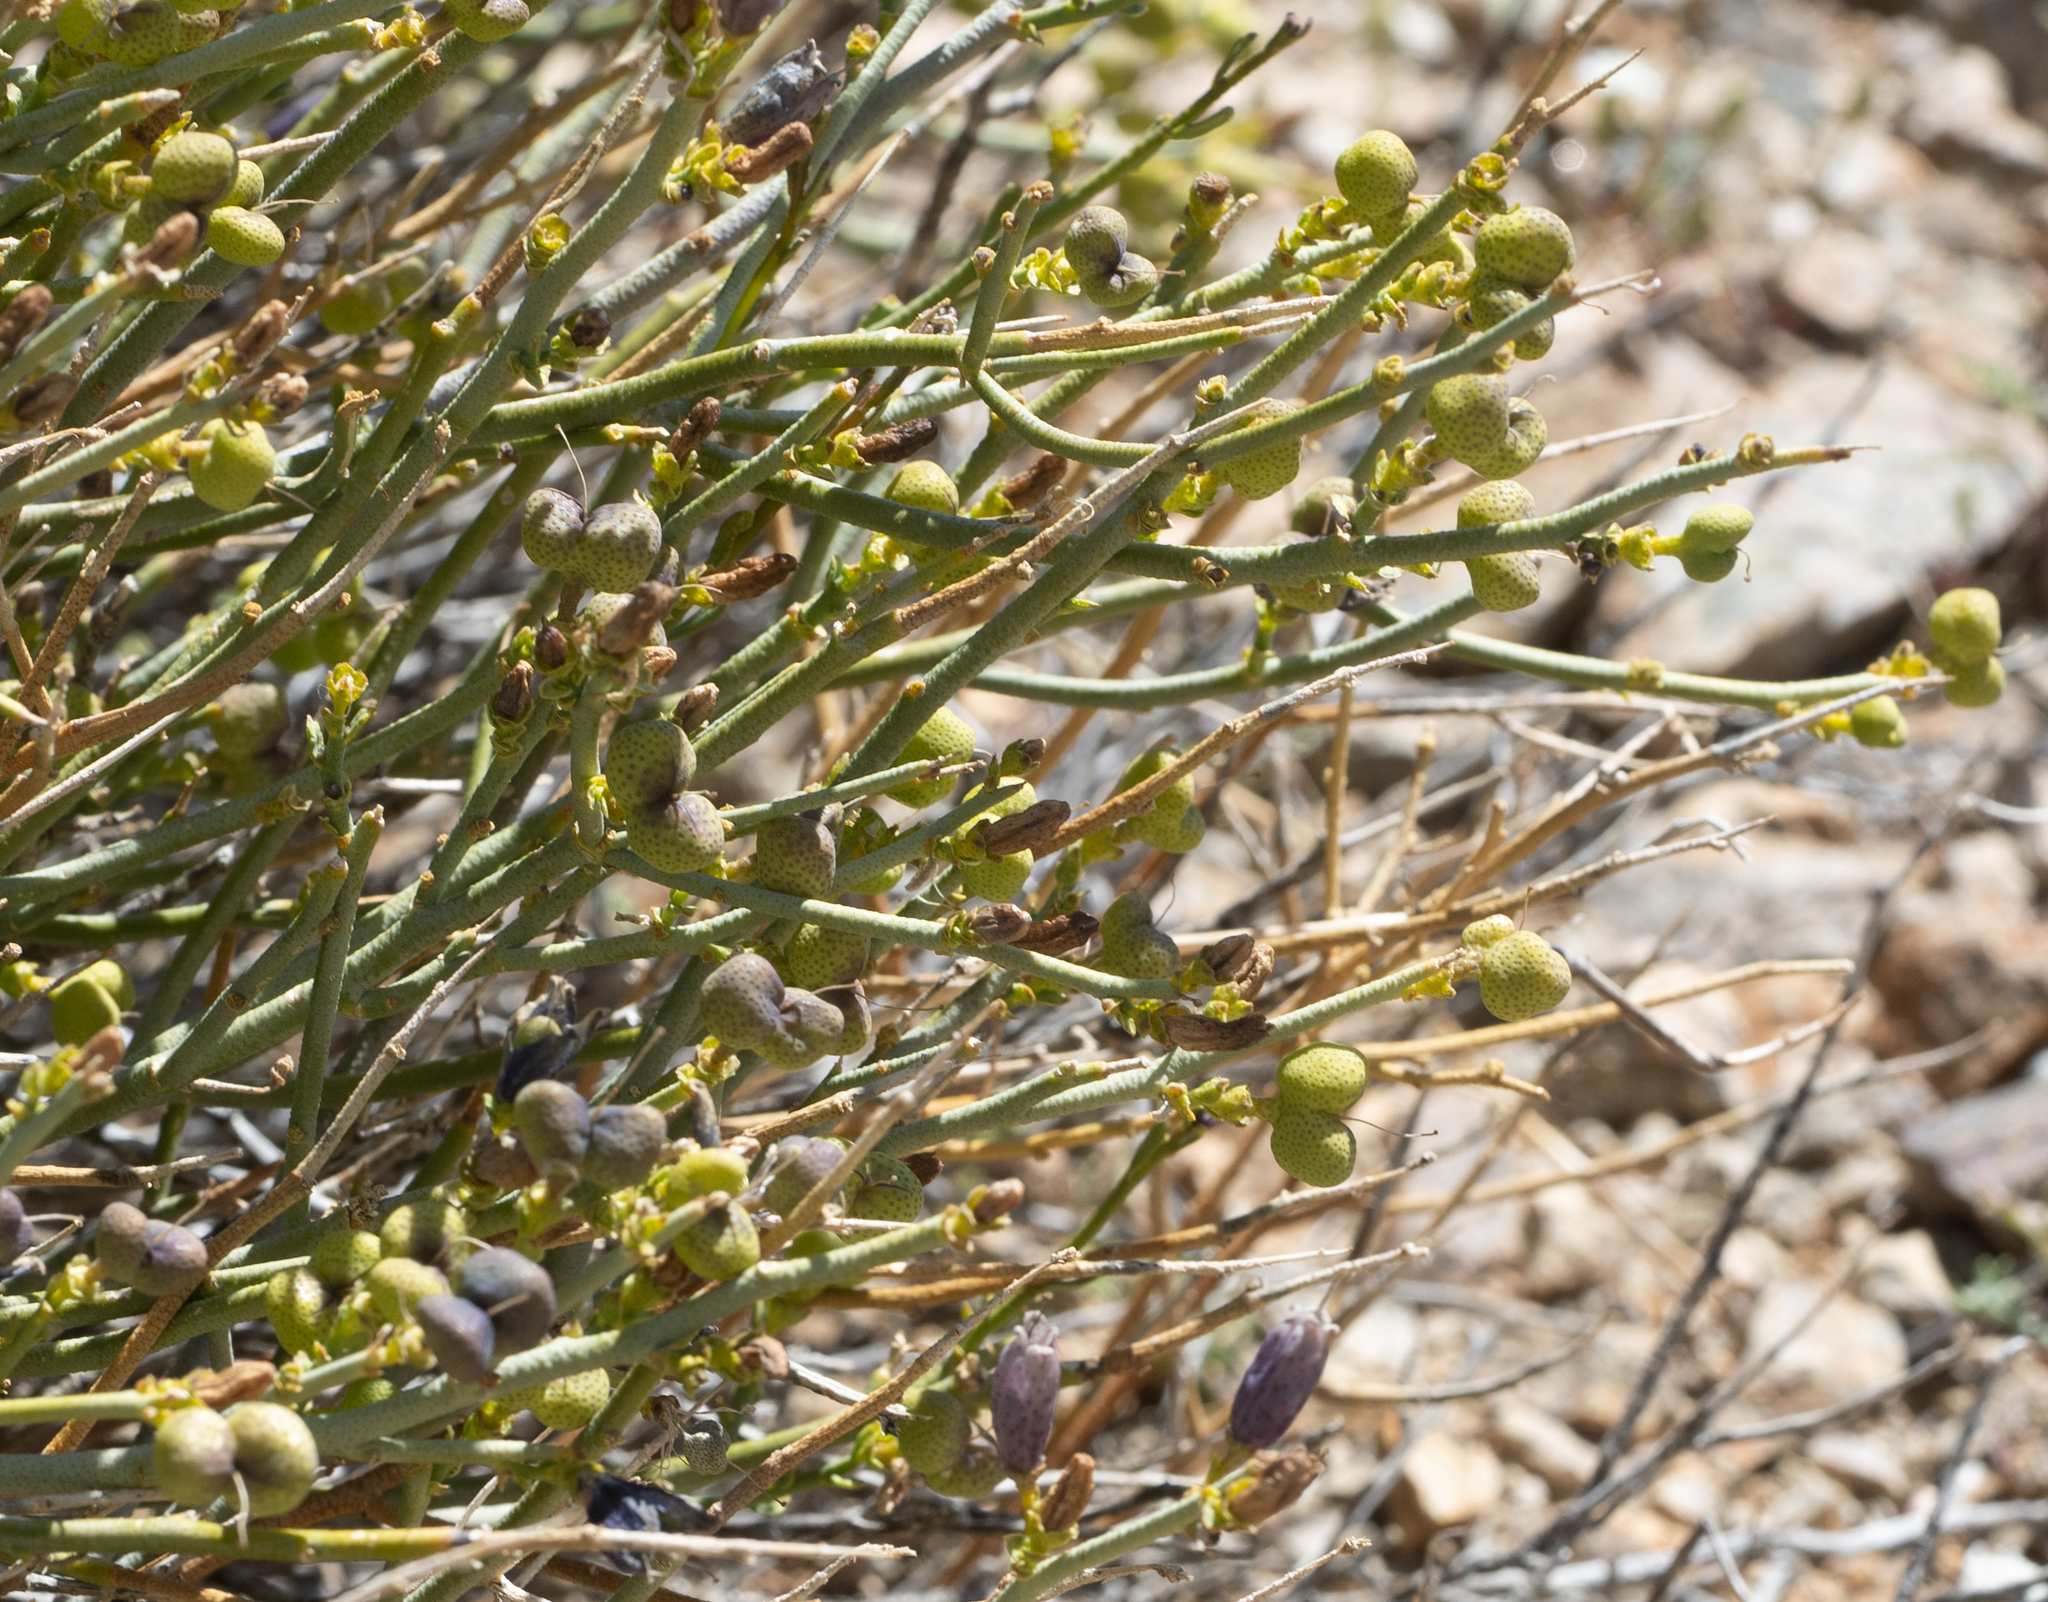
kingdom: Plantae
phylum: Tracheophyta
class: Magnoliopsida
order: Sapindales
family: Rutaceae
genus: Thamnosma
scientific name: Thamnosma montana
